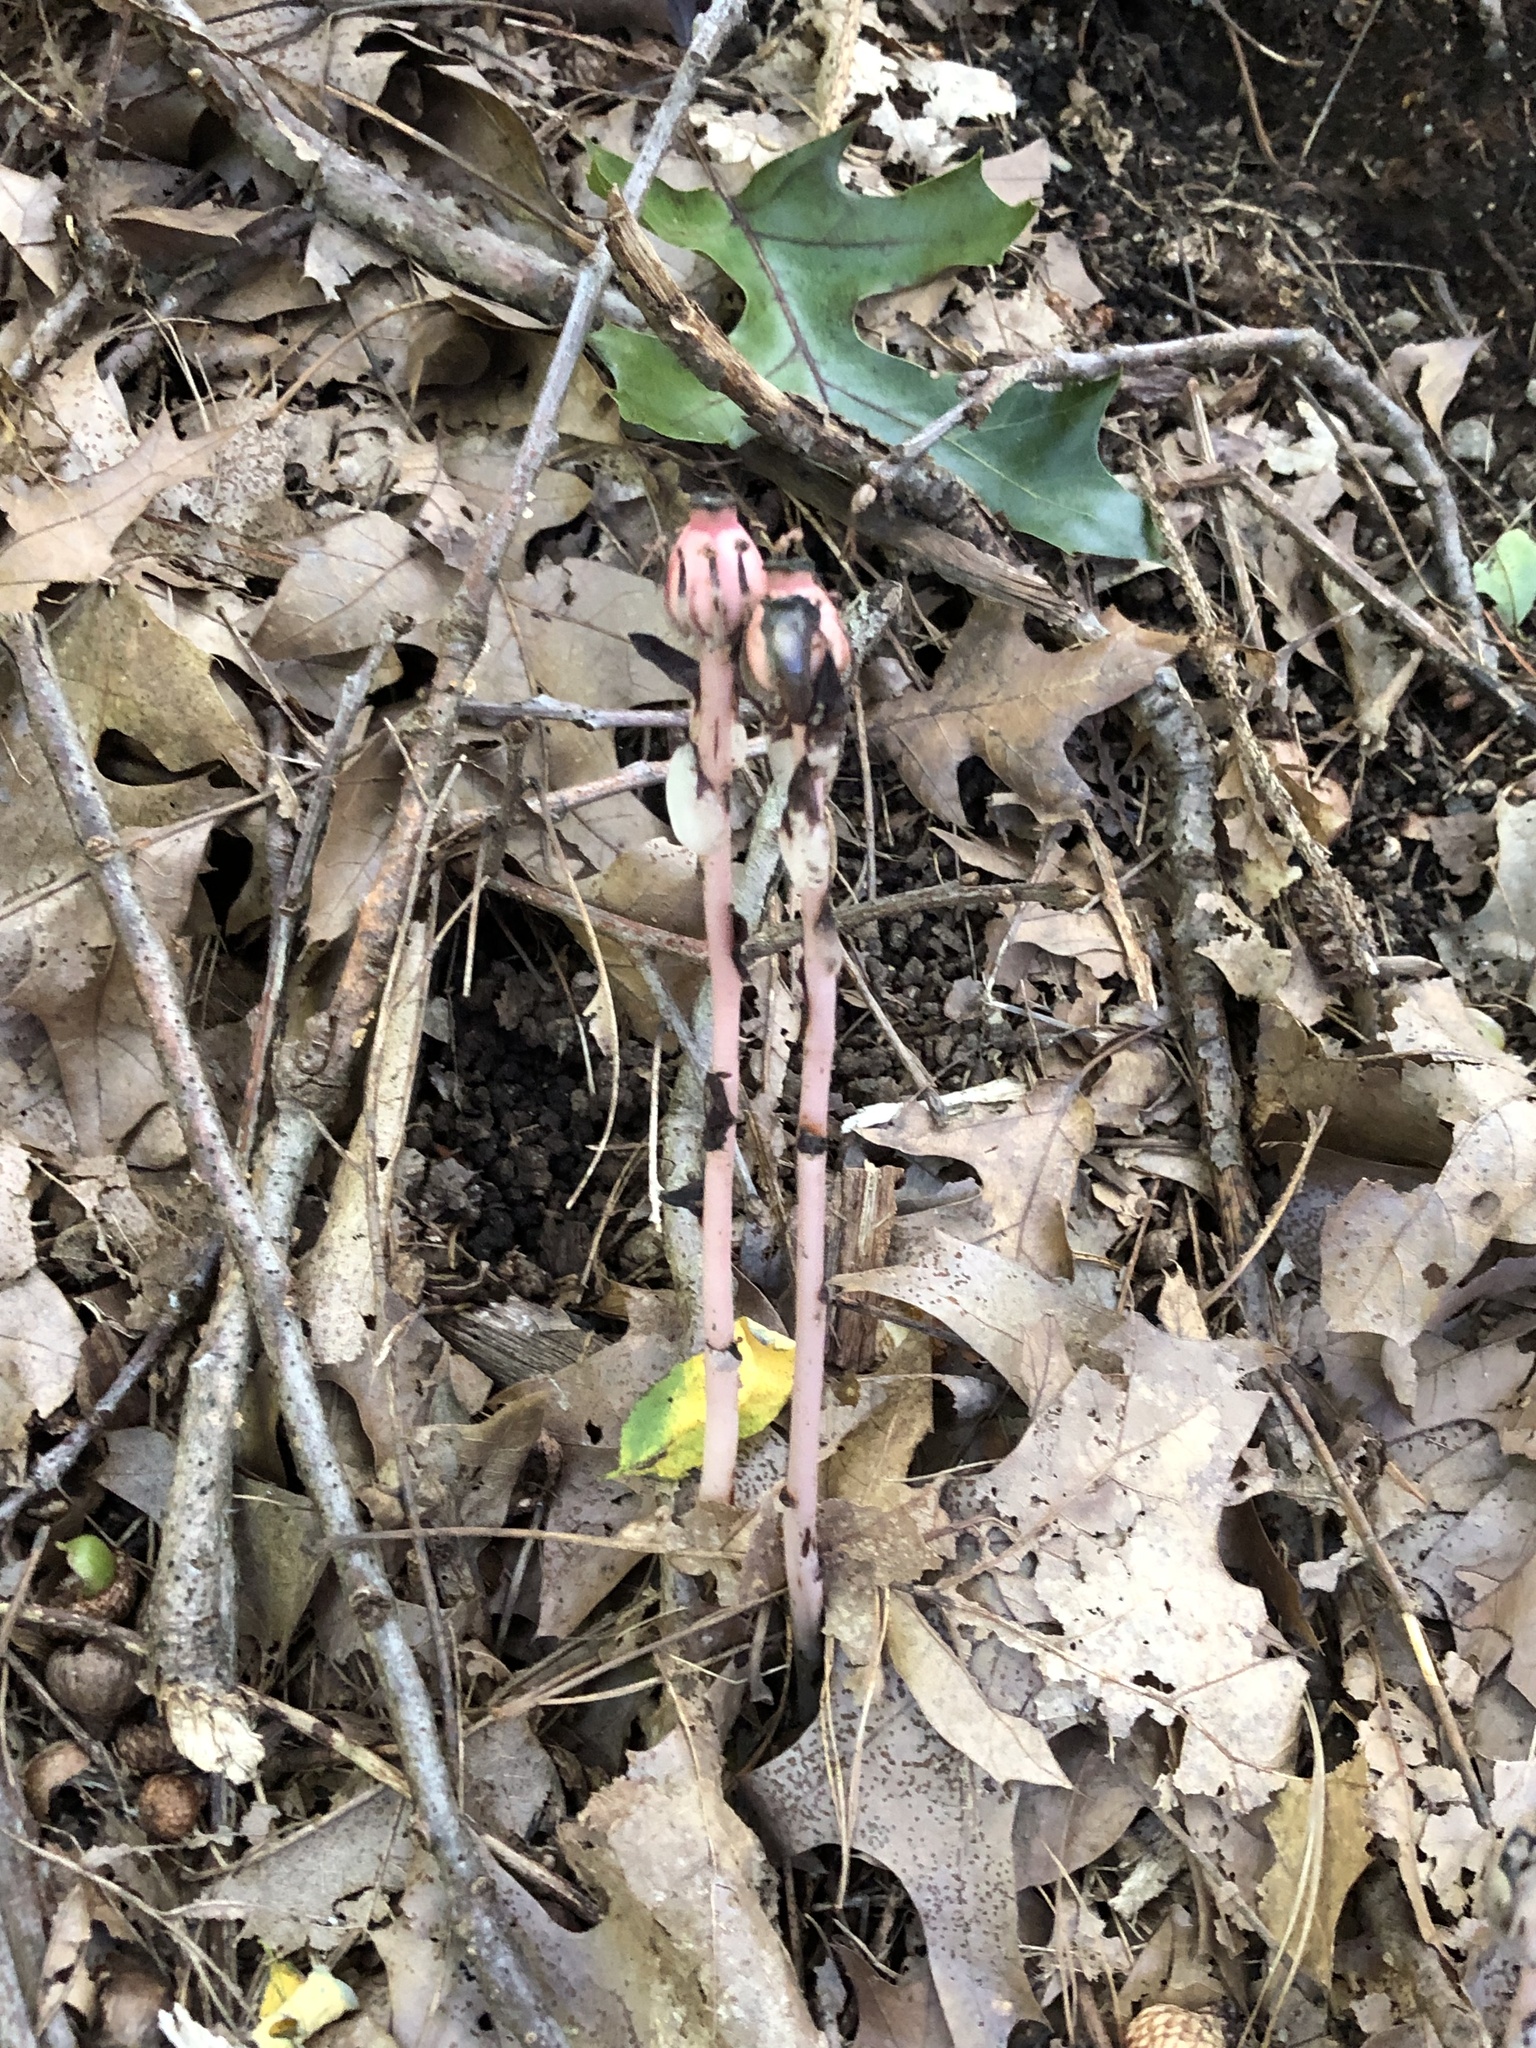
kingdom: Plantae
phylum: Tracheophyta
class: Magnoliopsida
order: Ericales
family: Ericaceae
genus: Monotropa
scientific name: Monotropa uniflora
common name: Convulsion root
